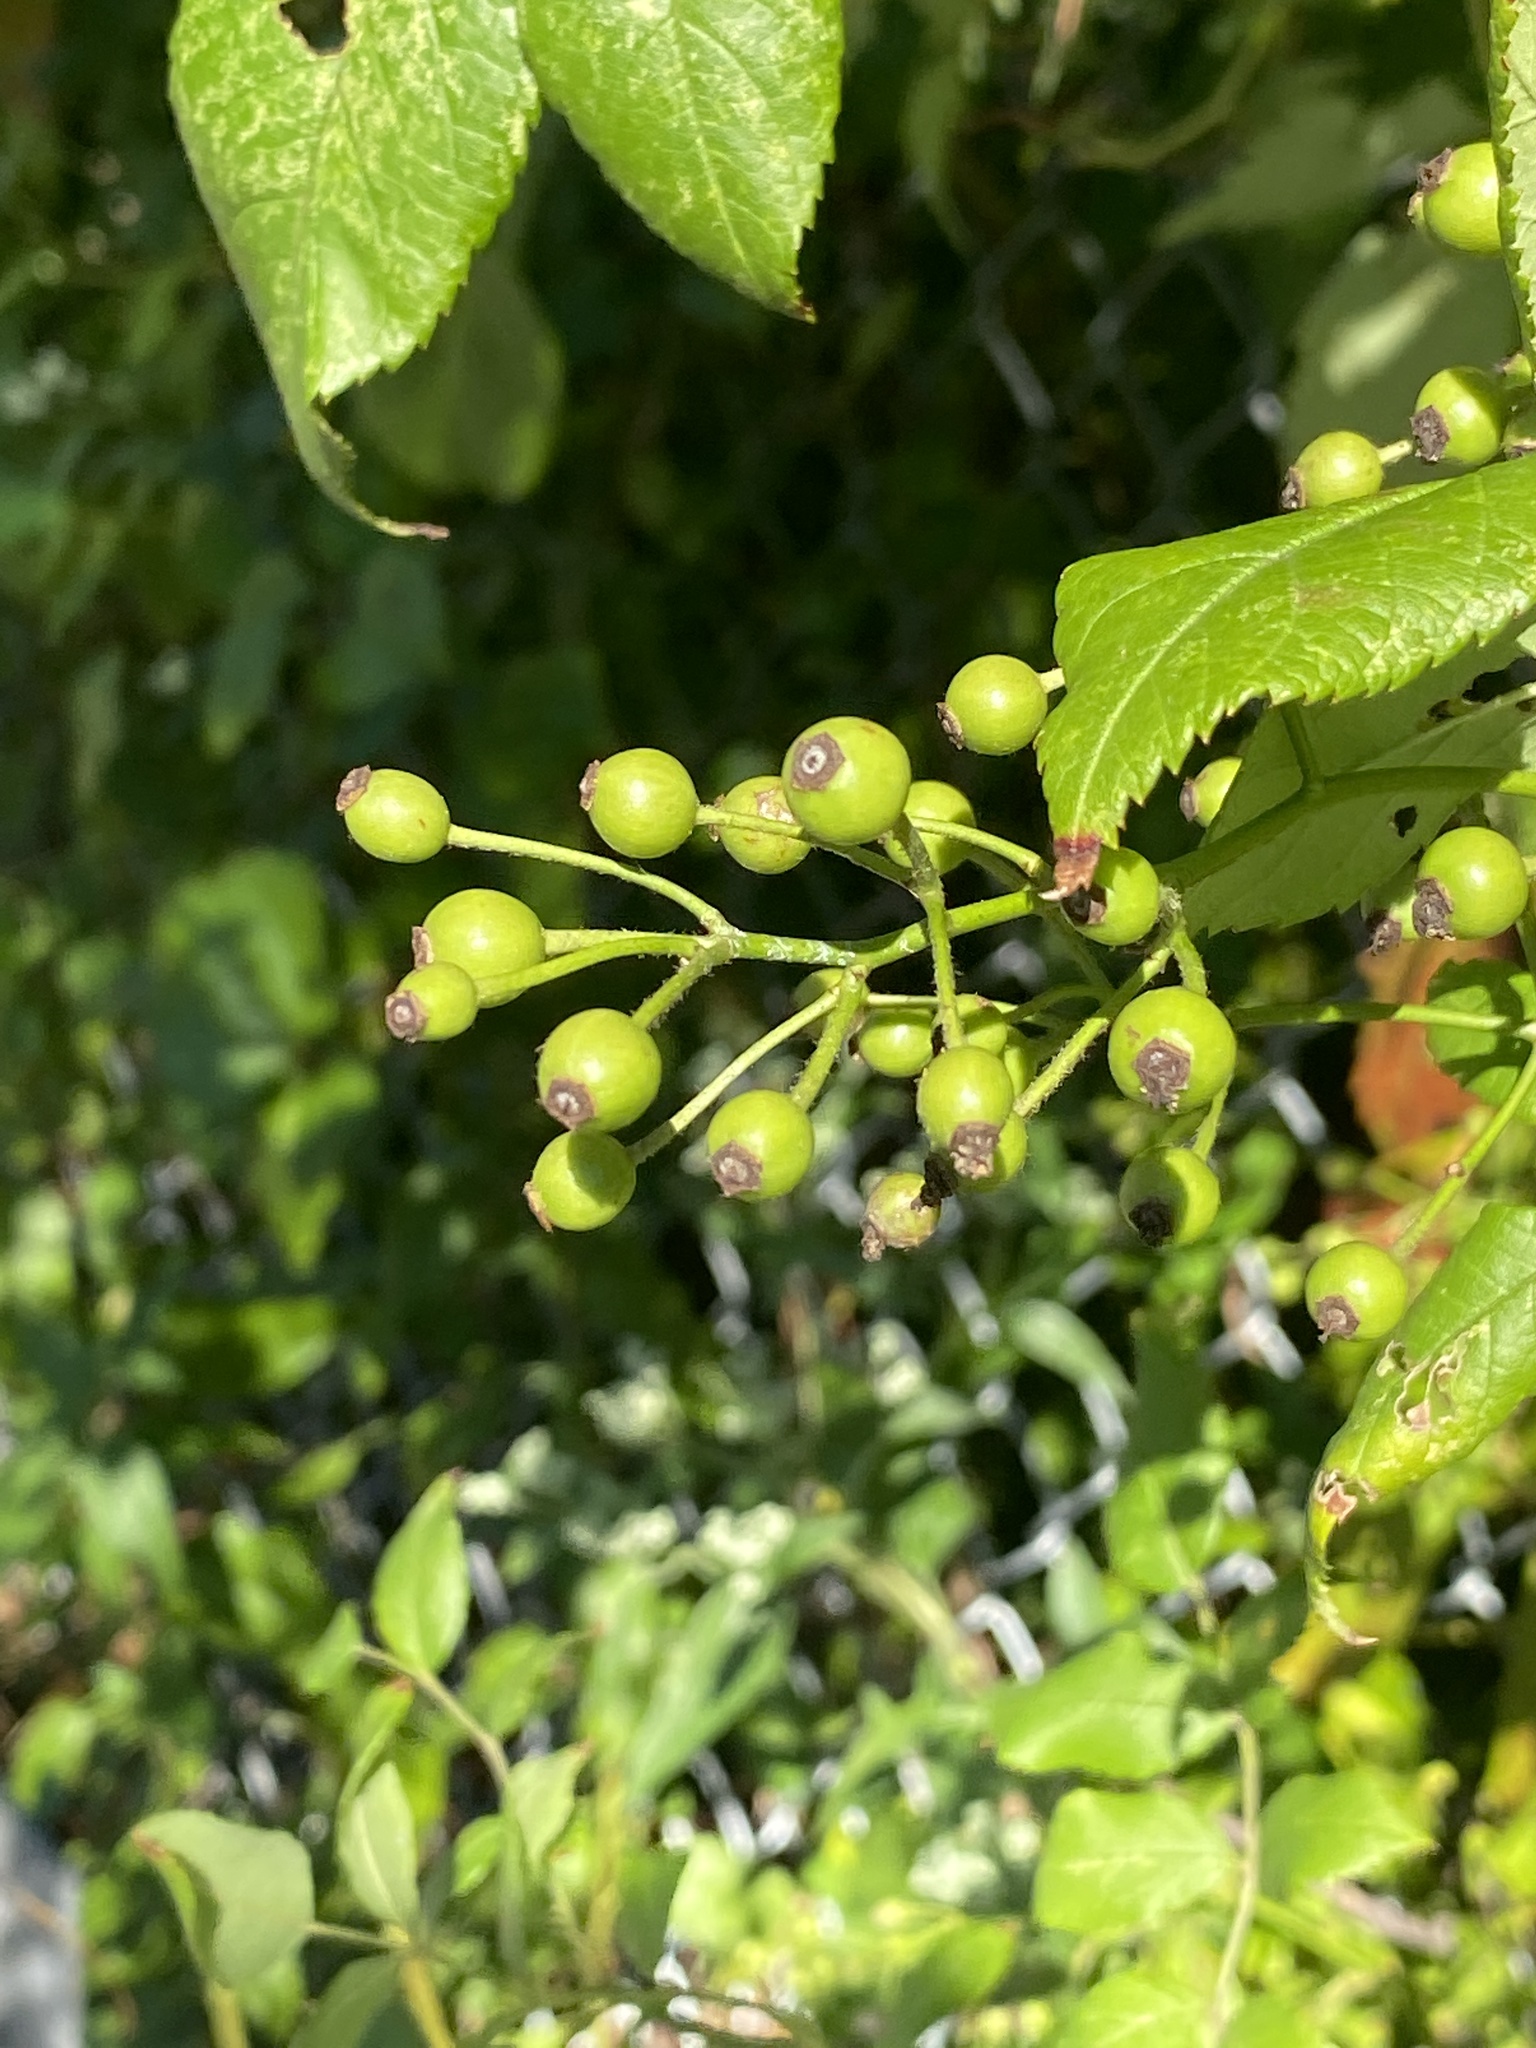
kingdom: Plantae
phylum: Tracheophyta
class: Magnoliopsida
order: Rosales
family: Rosaceae
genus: Rosa
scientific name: Rosa multiflora
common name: Multiflora rose
